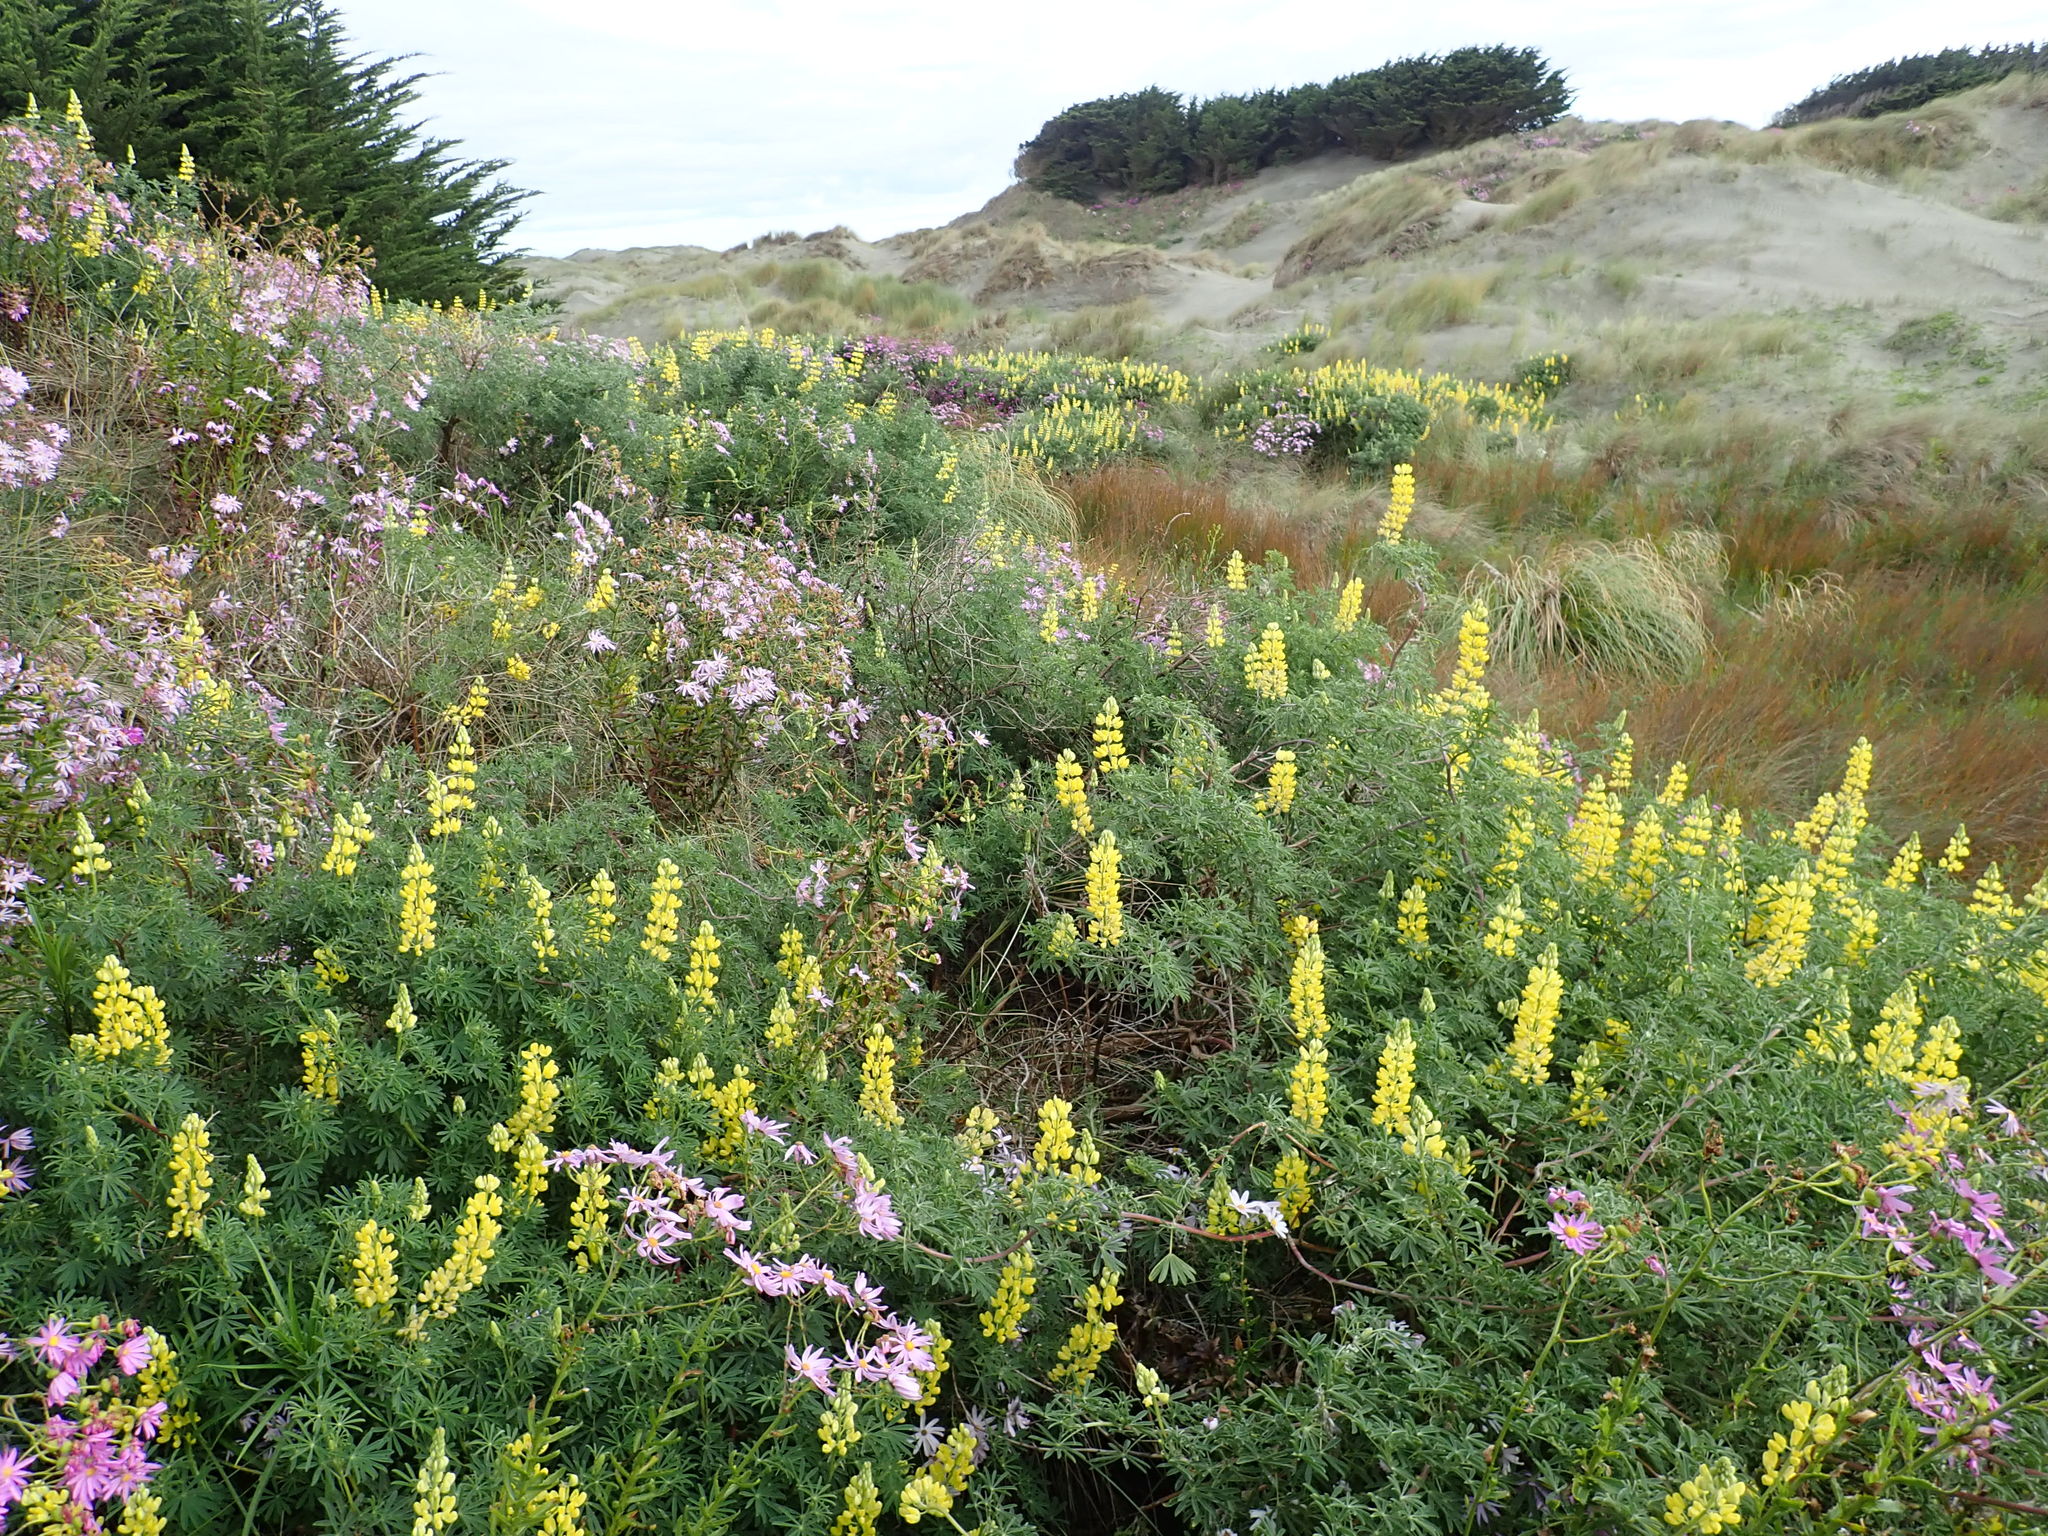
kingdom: Plantae
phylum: Tracheophyta
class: Magnoliopsida
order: Fabales
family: Fabaceae
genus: Lupinus
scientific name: Lupinus arboreus
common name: Yellow bush lupine
